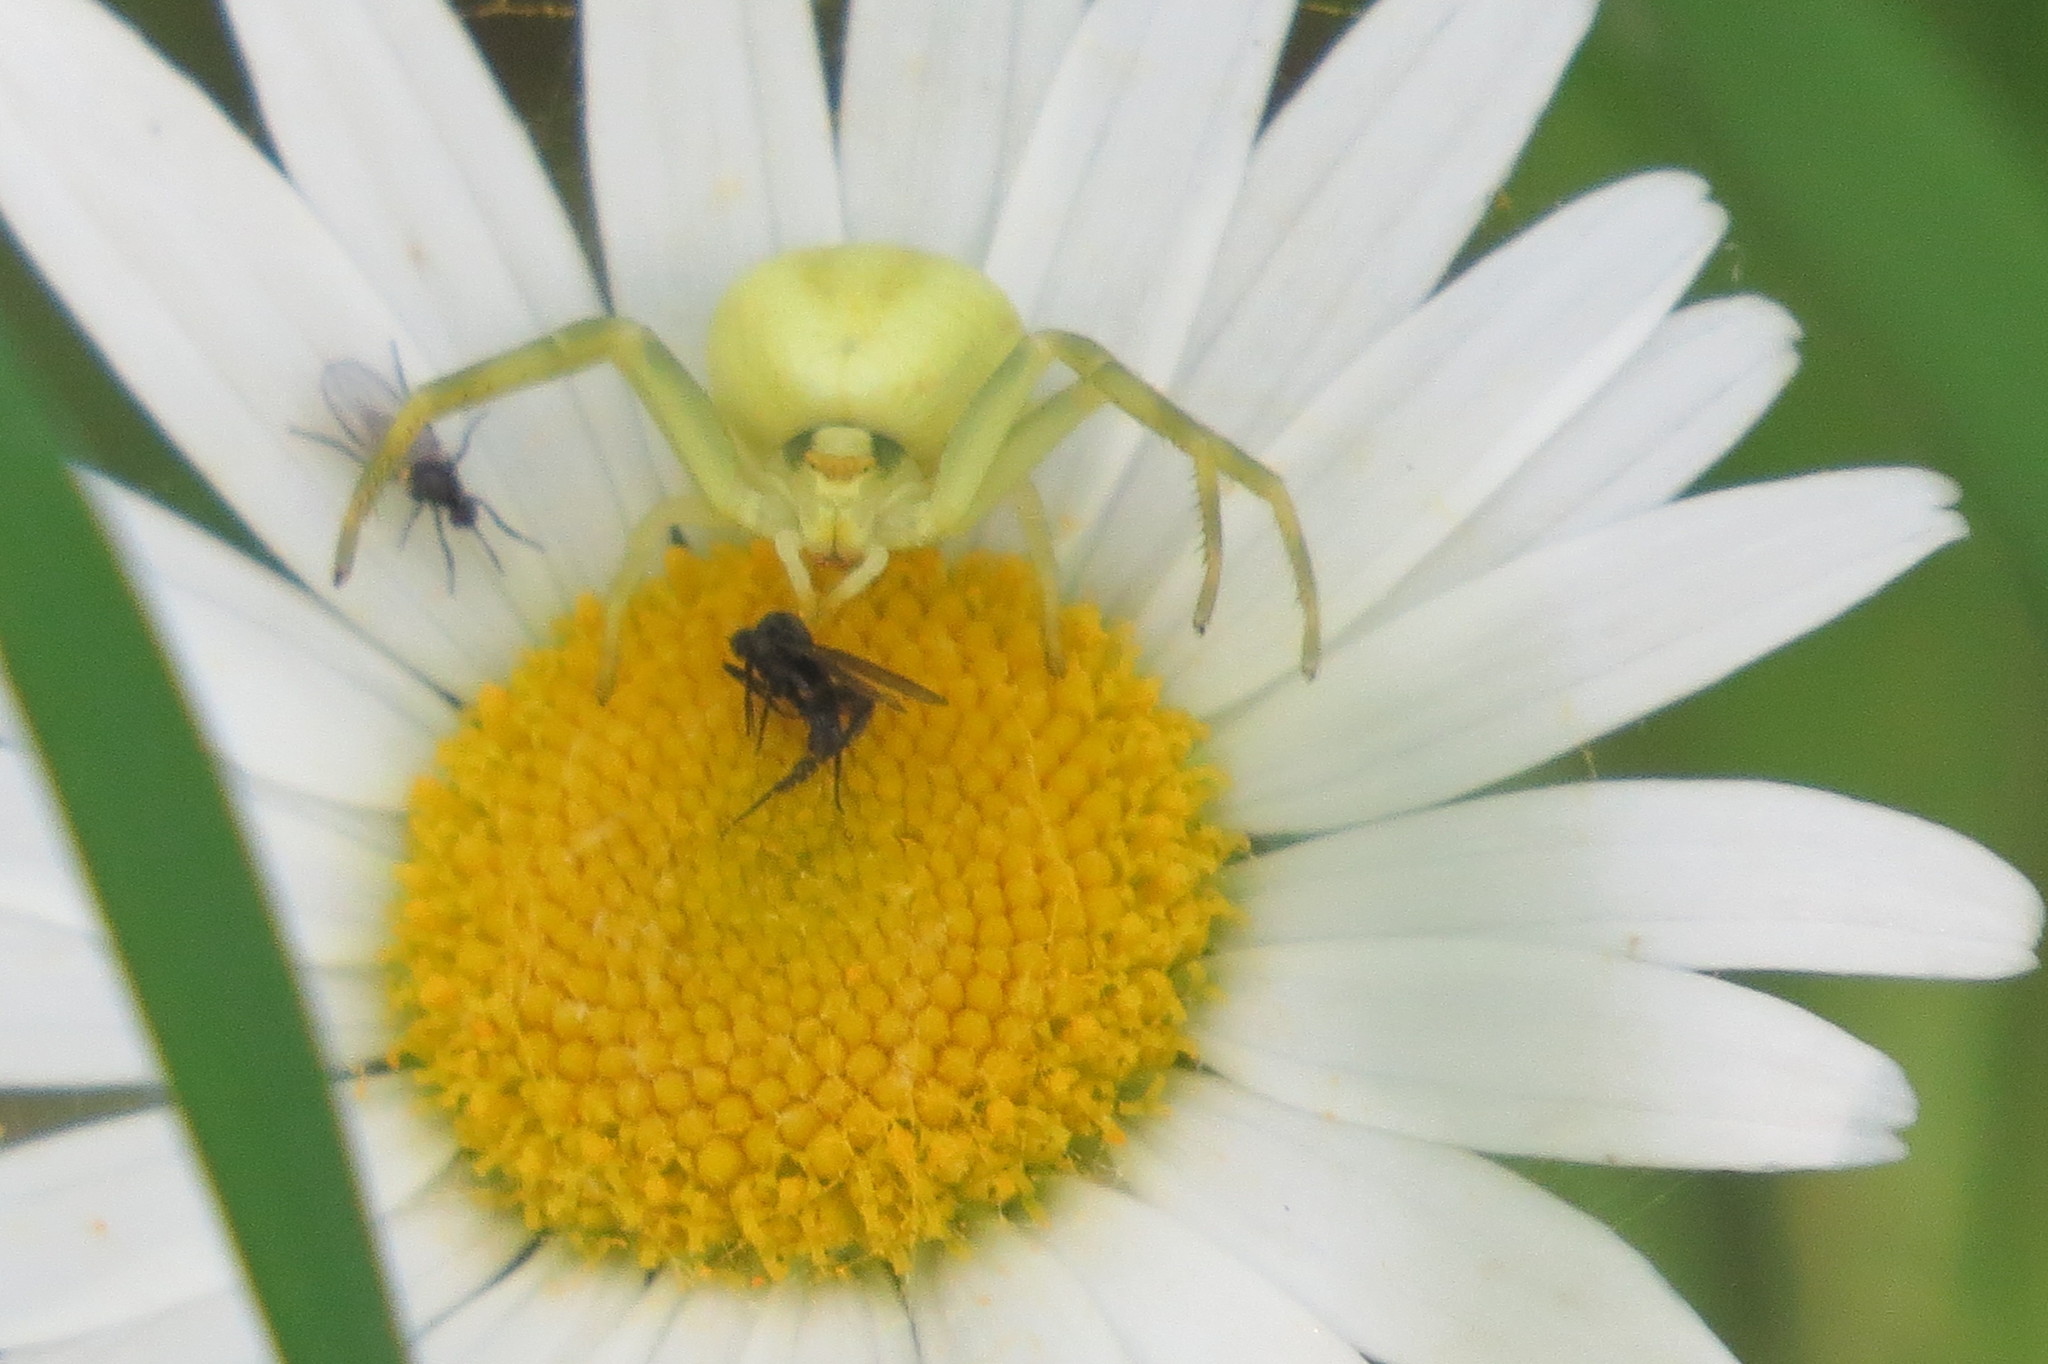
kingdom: Animalia
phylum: Arthropoda
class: Arachnida
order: Araneae
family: Thomisidae
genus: Misumena
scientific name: Misumena vatia
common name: Goldenrod crab spider
